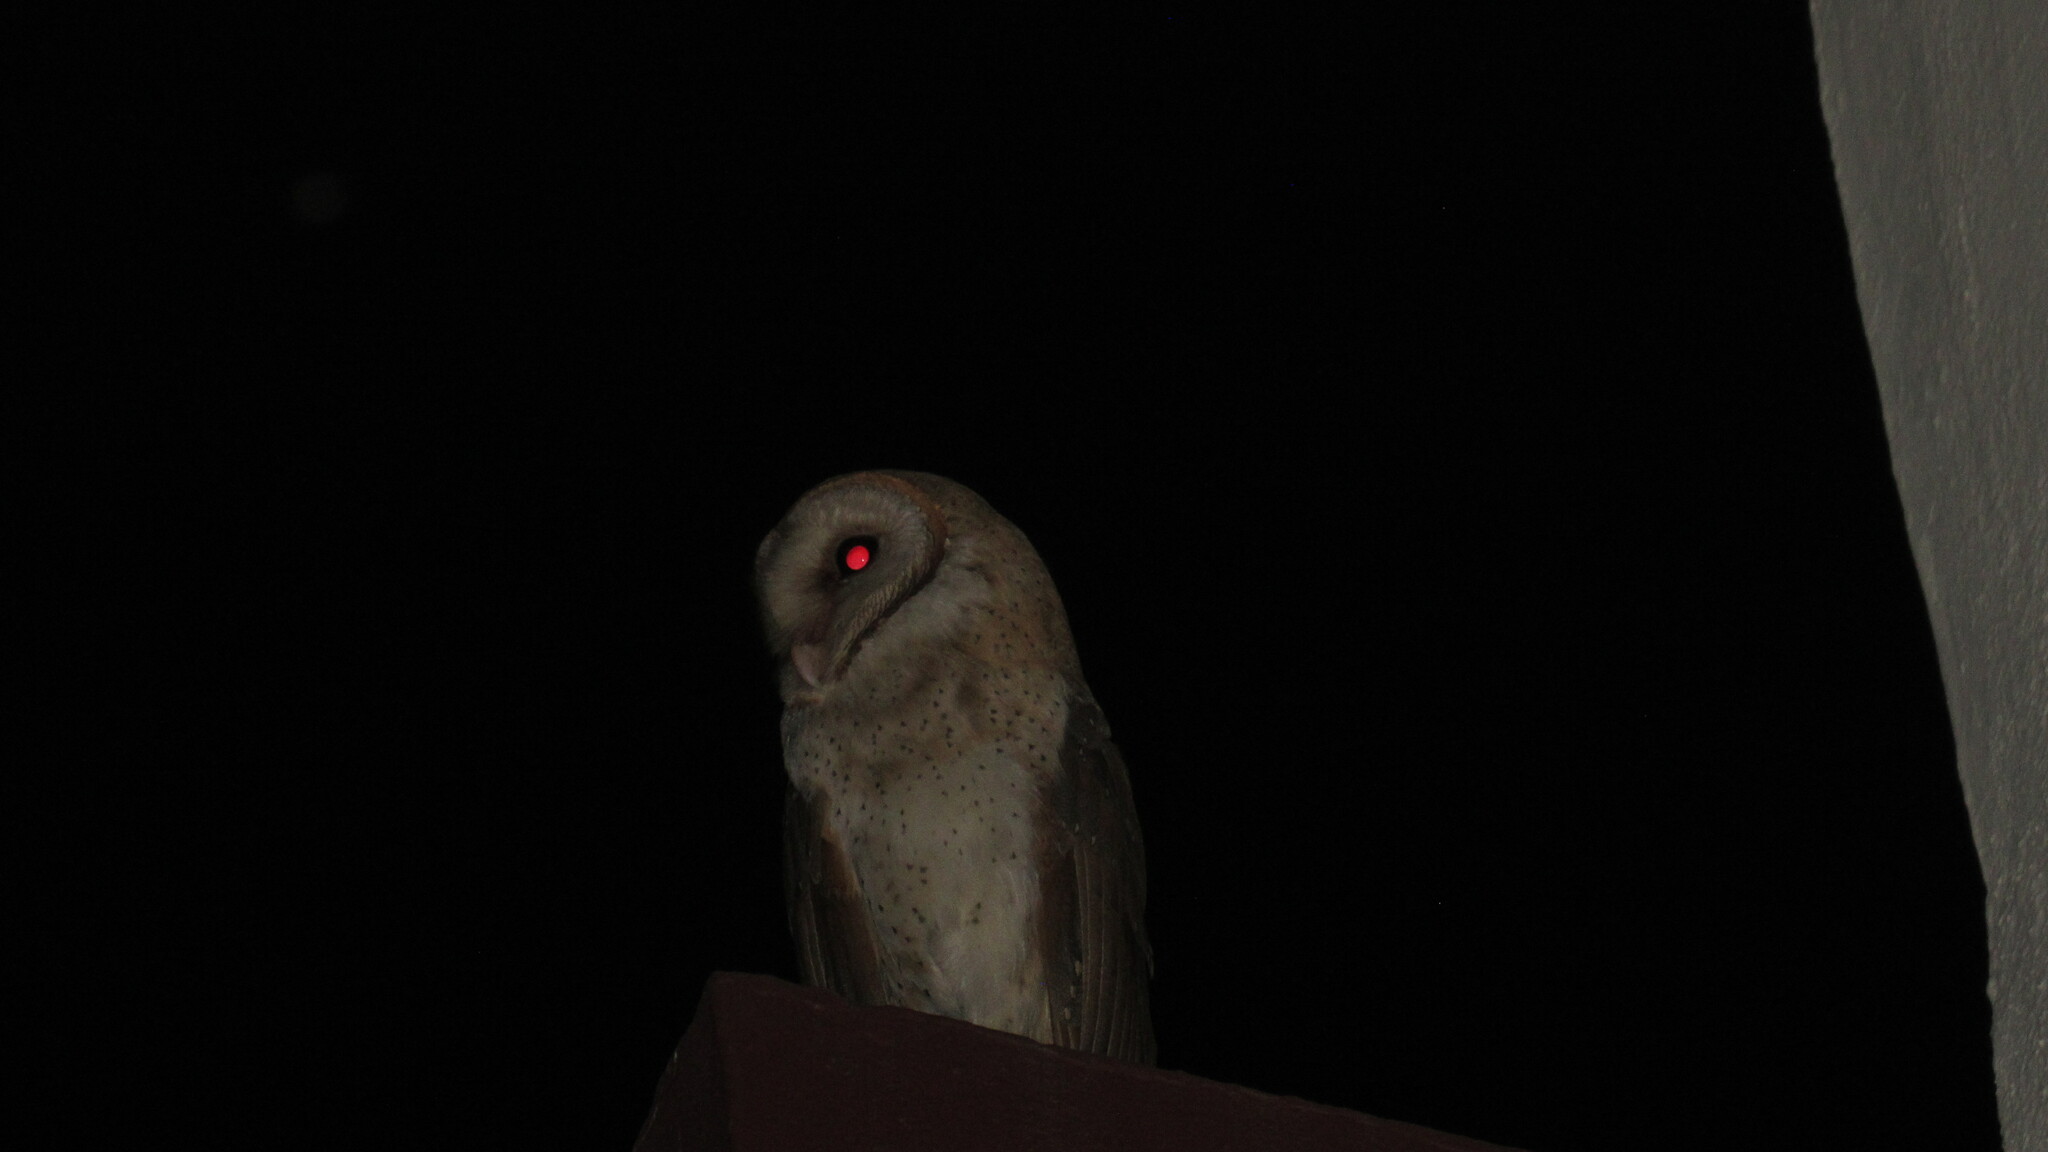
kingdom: Animalia
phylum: Chordata
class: Aves
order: Strigiformes
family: Tytonidae
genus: Tyto
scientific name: Tyto alba
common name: Barn owl
